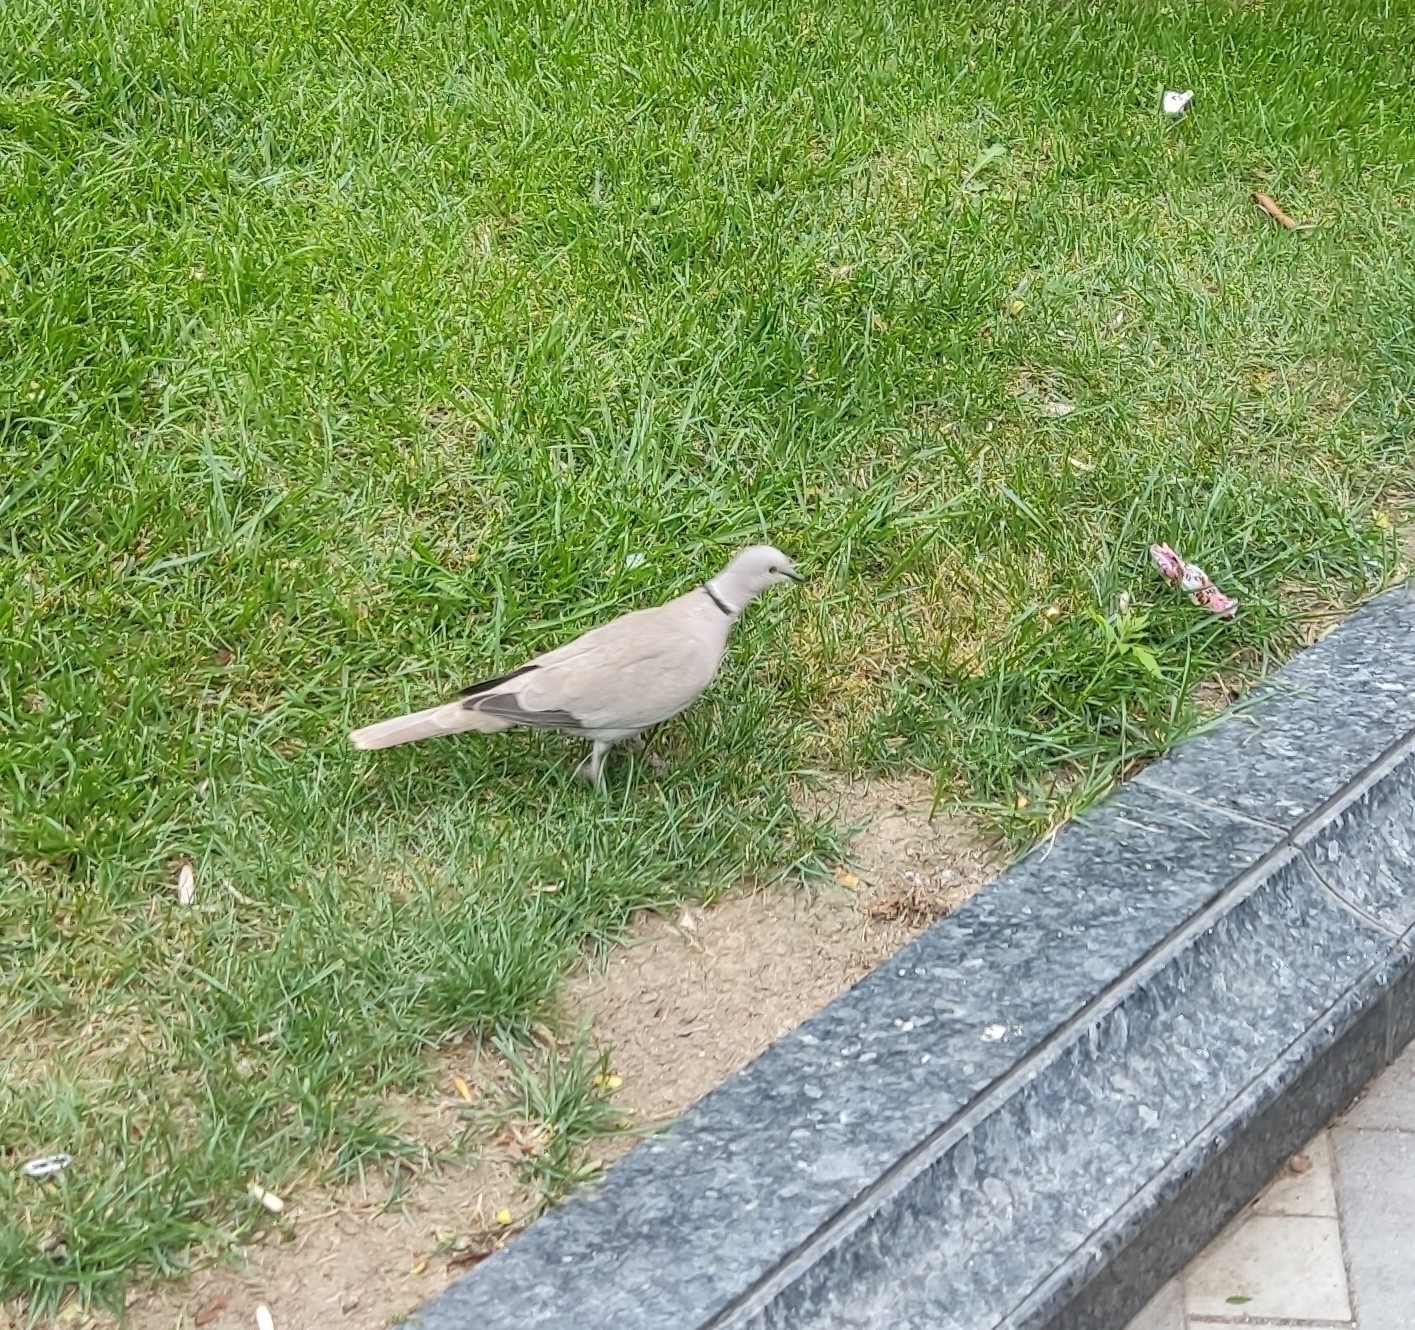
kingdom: Animalia
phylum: Chordata
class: Aves
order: Columbiformes
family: Columbidae
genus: Streptopelia
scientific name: Streptopelia decaocto
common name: Eurasian collared dove
